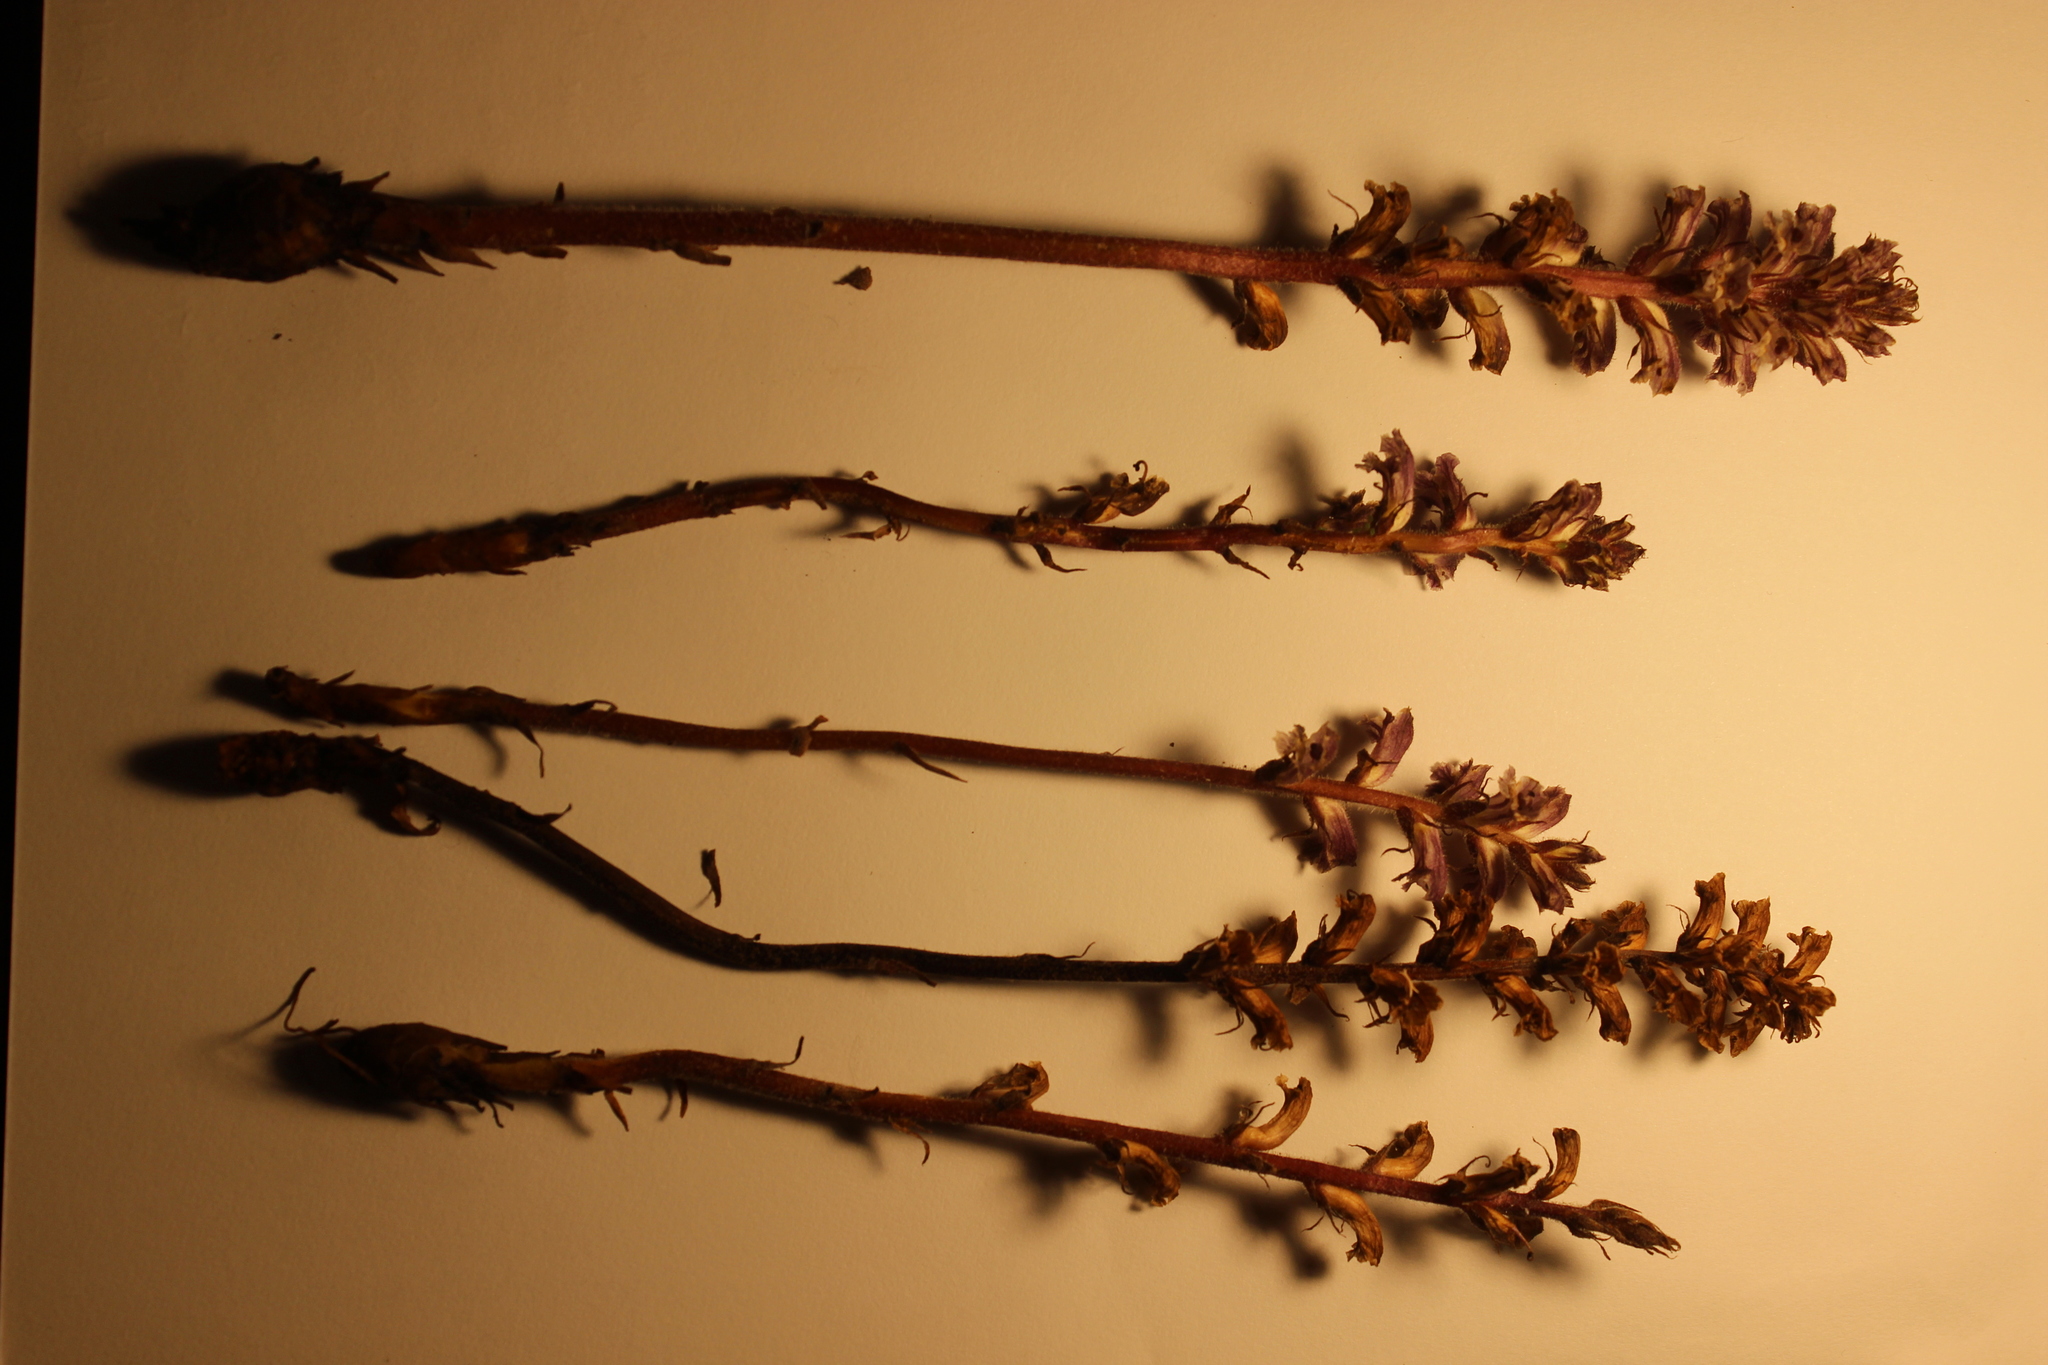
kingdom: Plantae
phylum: Tracheophyta
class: Magnoliopsida
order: Lamiales
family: Orobanchaceae
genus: Orobanche
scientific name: Orobanche minor
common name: Common broomrape
